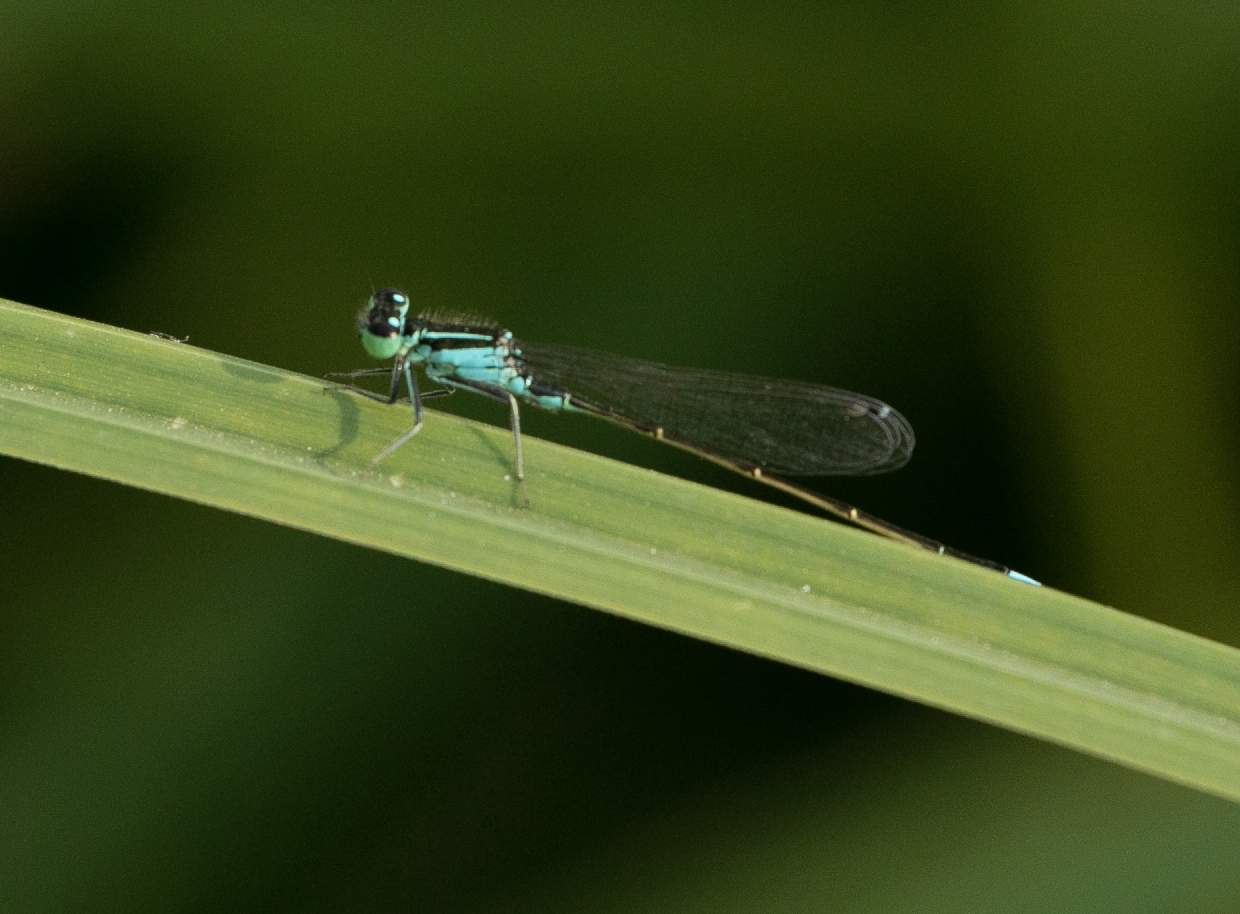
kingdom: Animalia
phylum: Arthropoda
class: Insecta
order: Odonata
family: Coenagrionidae
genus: Ischnura
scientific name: Ischnura elegans
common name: Blue-tailed damselfly
